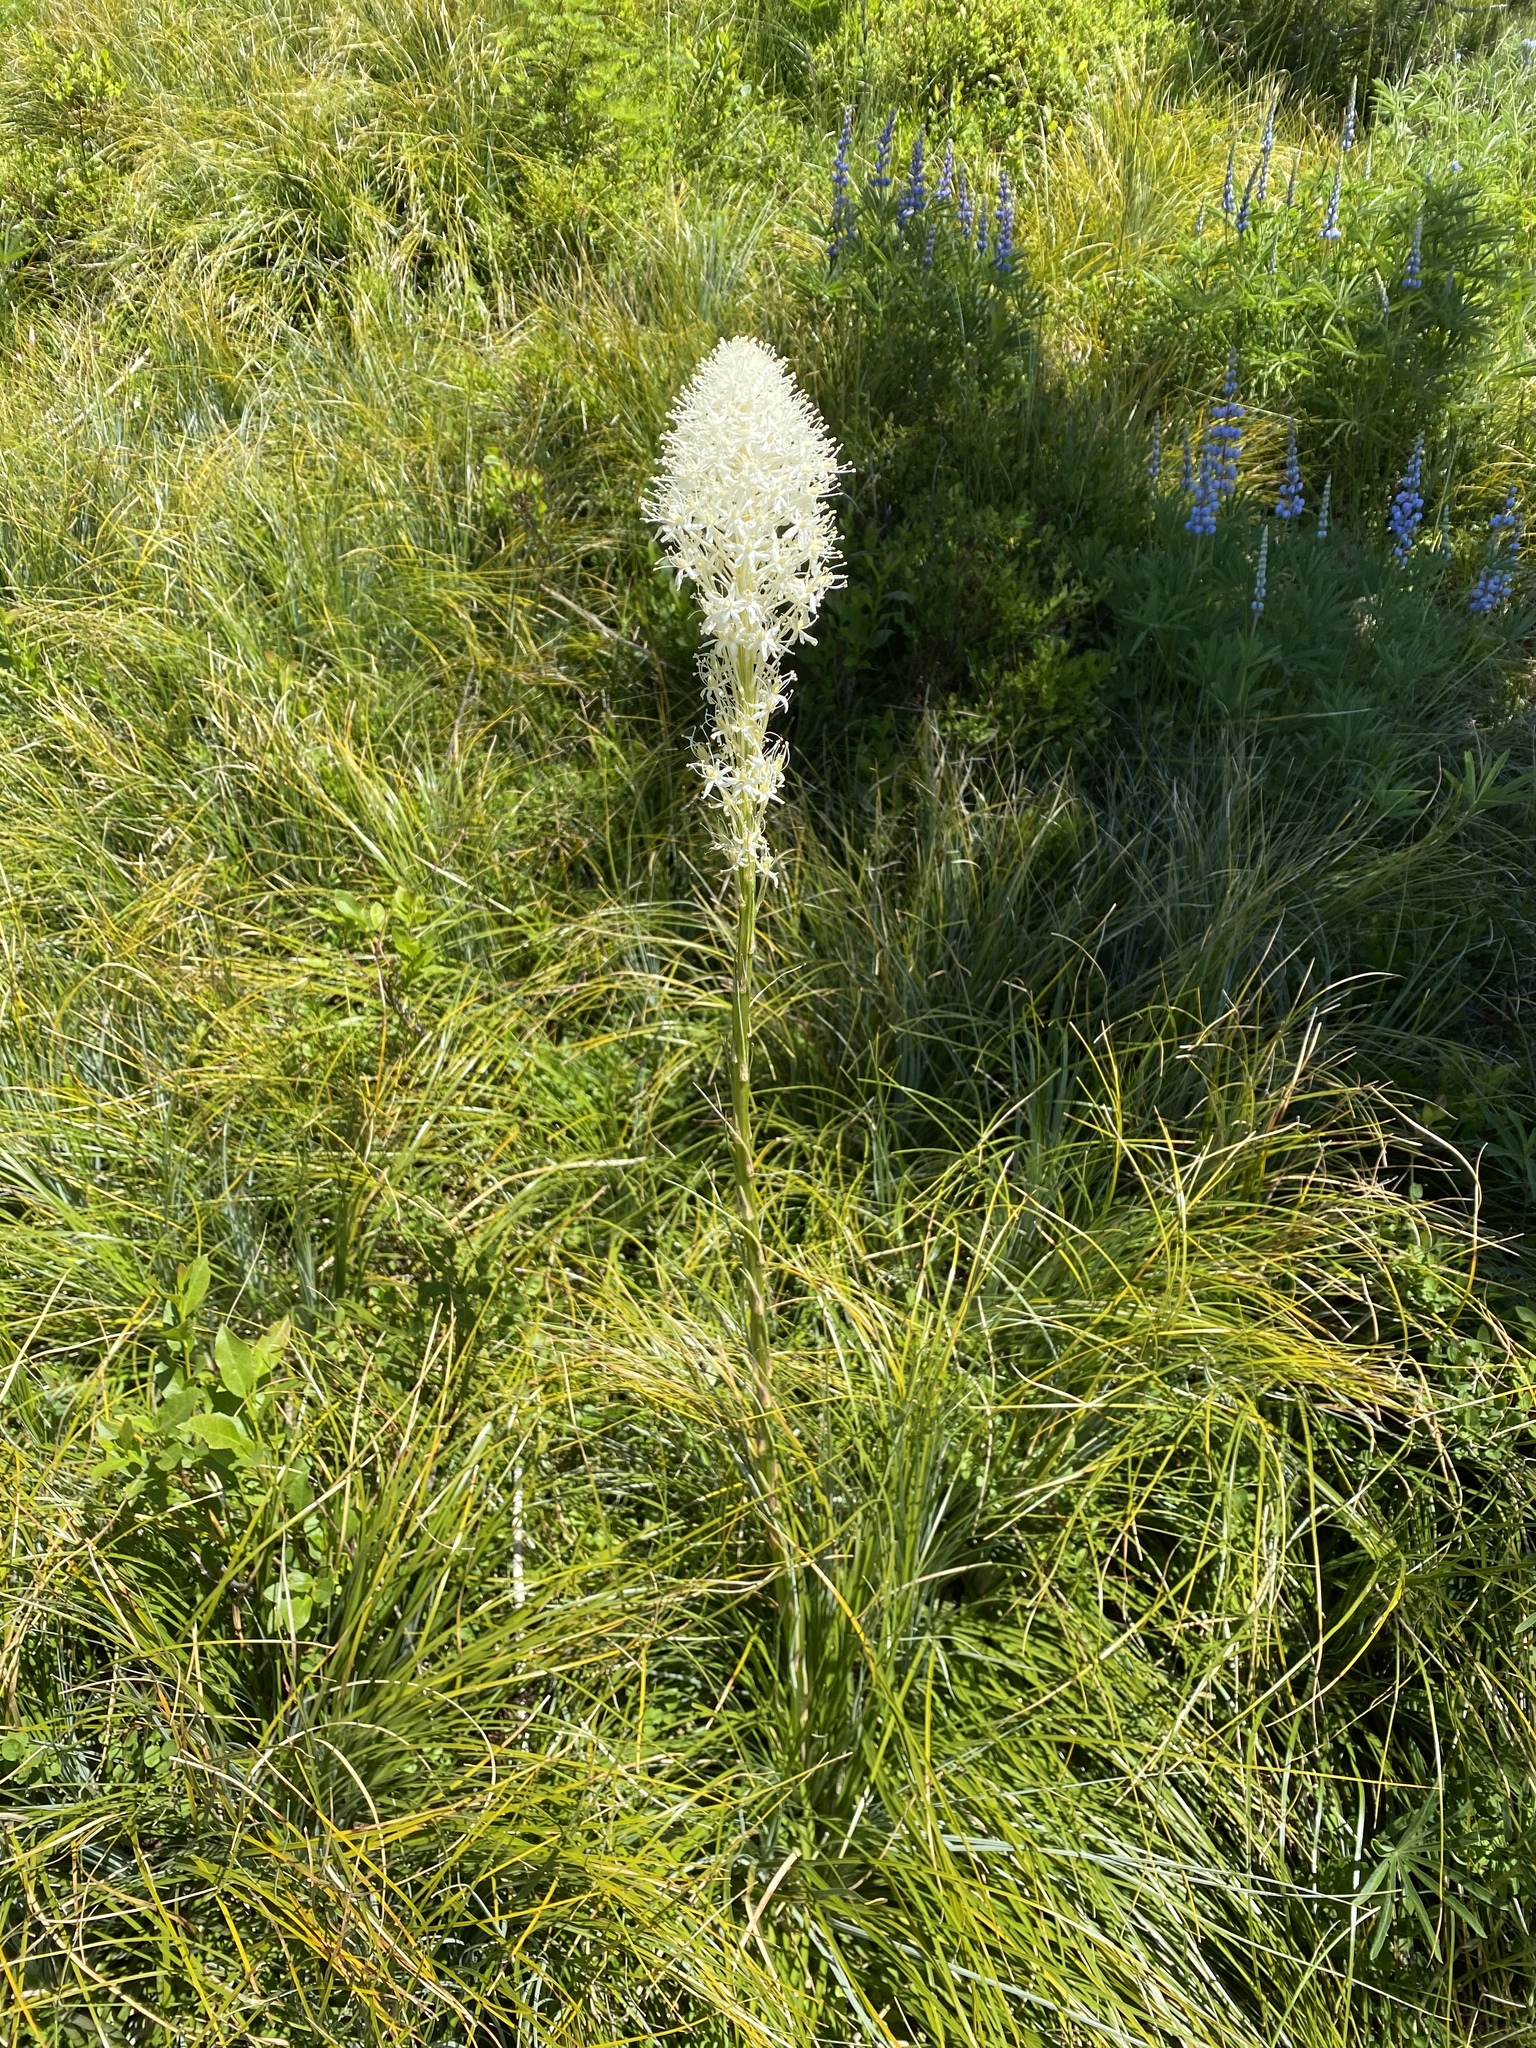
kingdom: Plantae
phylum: Tracheophyta
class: Liliopsida
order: Liliales
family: Melanthiaceae
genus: Xerophyllum
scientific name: Xerophyllum tenax
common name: Bear-grass
